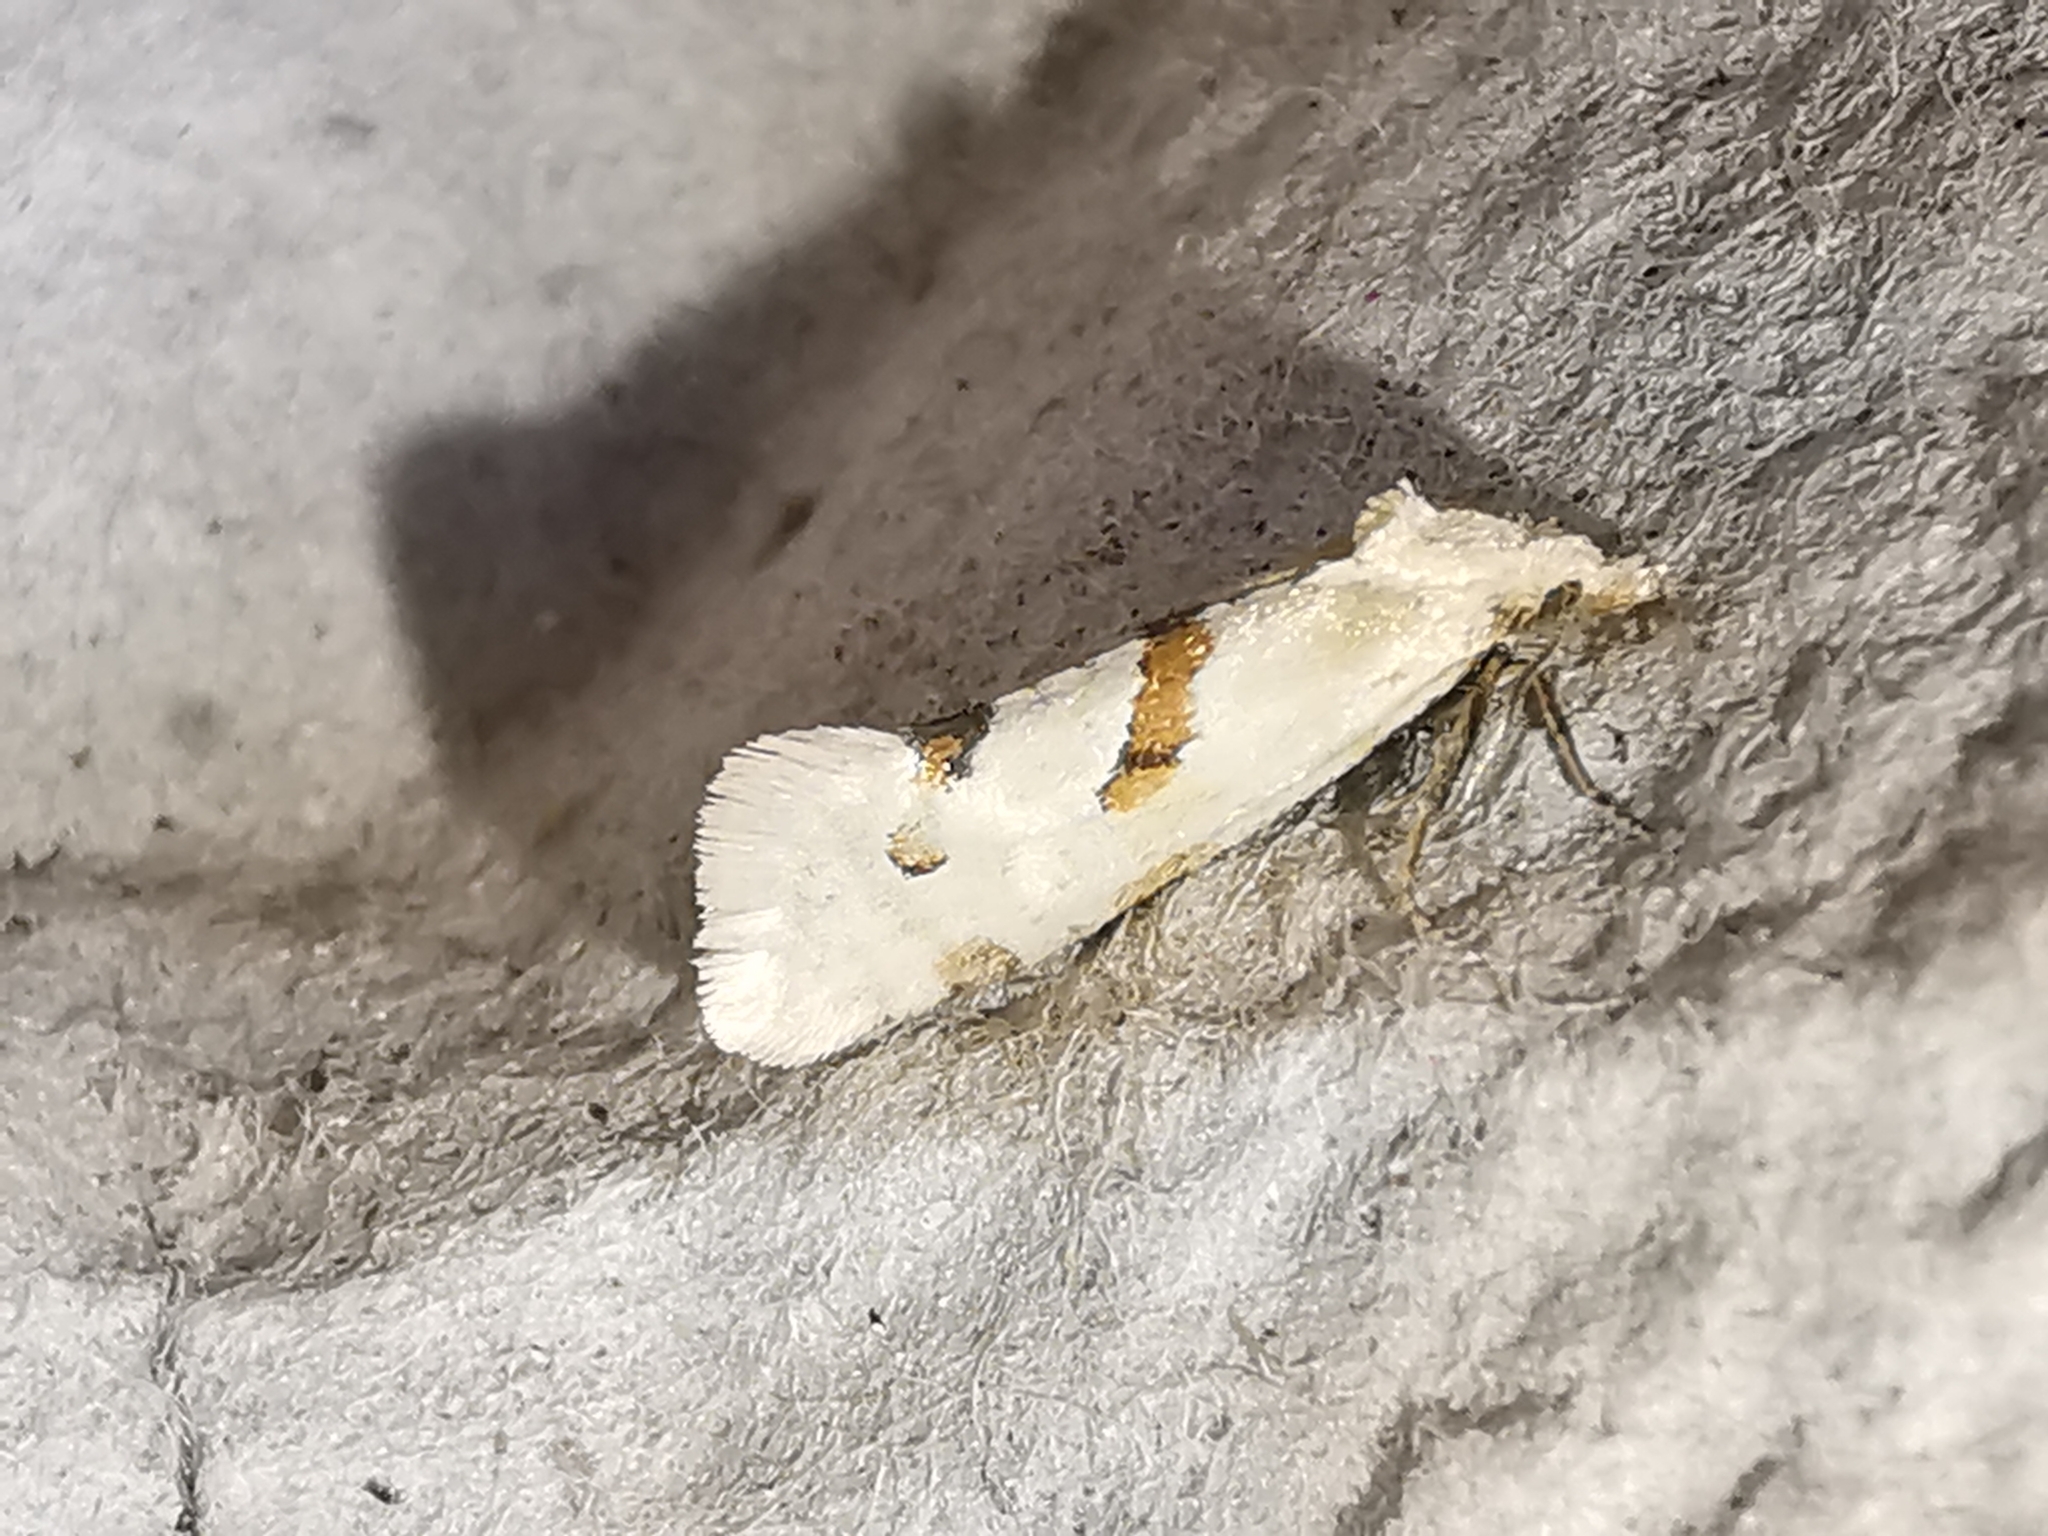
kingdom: Animalia
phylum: Arthropoda
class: Insecta
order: Lepidoptera
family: Tortricidae
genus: Aethes
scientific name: Aethes smeathmanniana
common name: Yarrow conch
